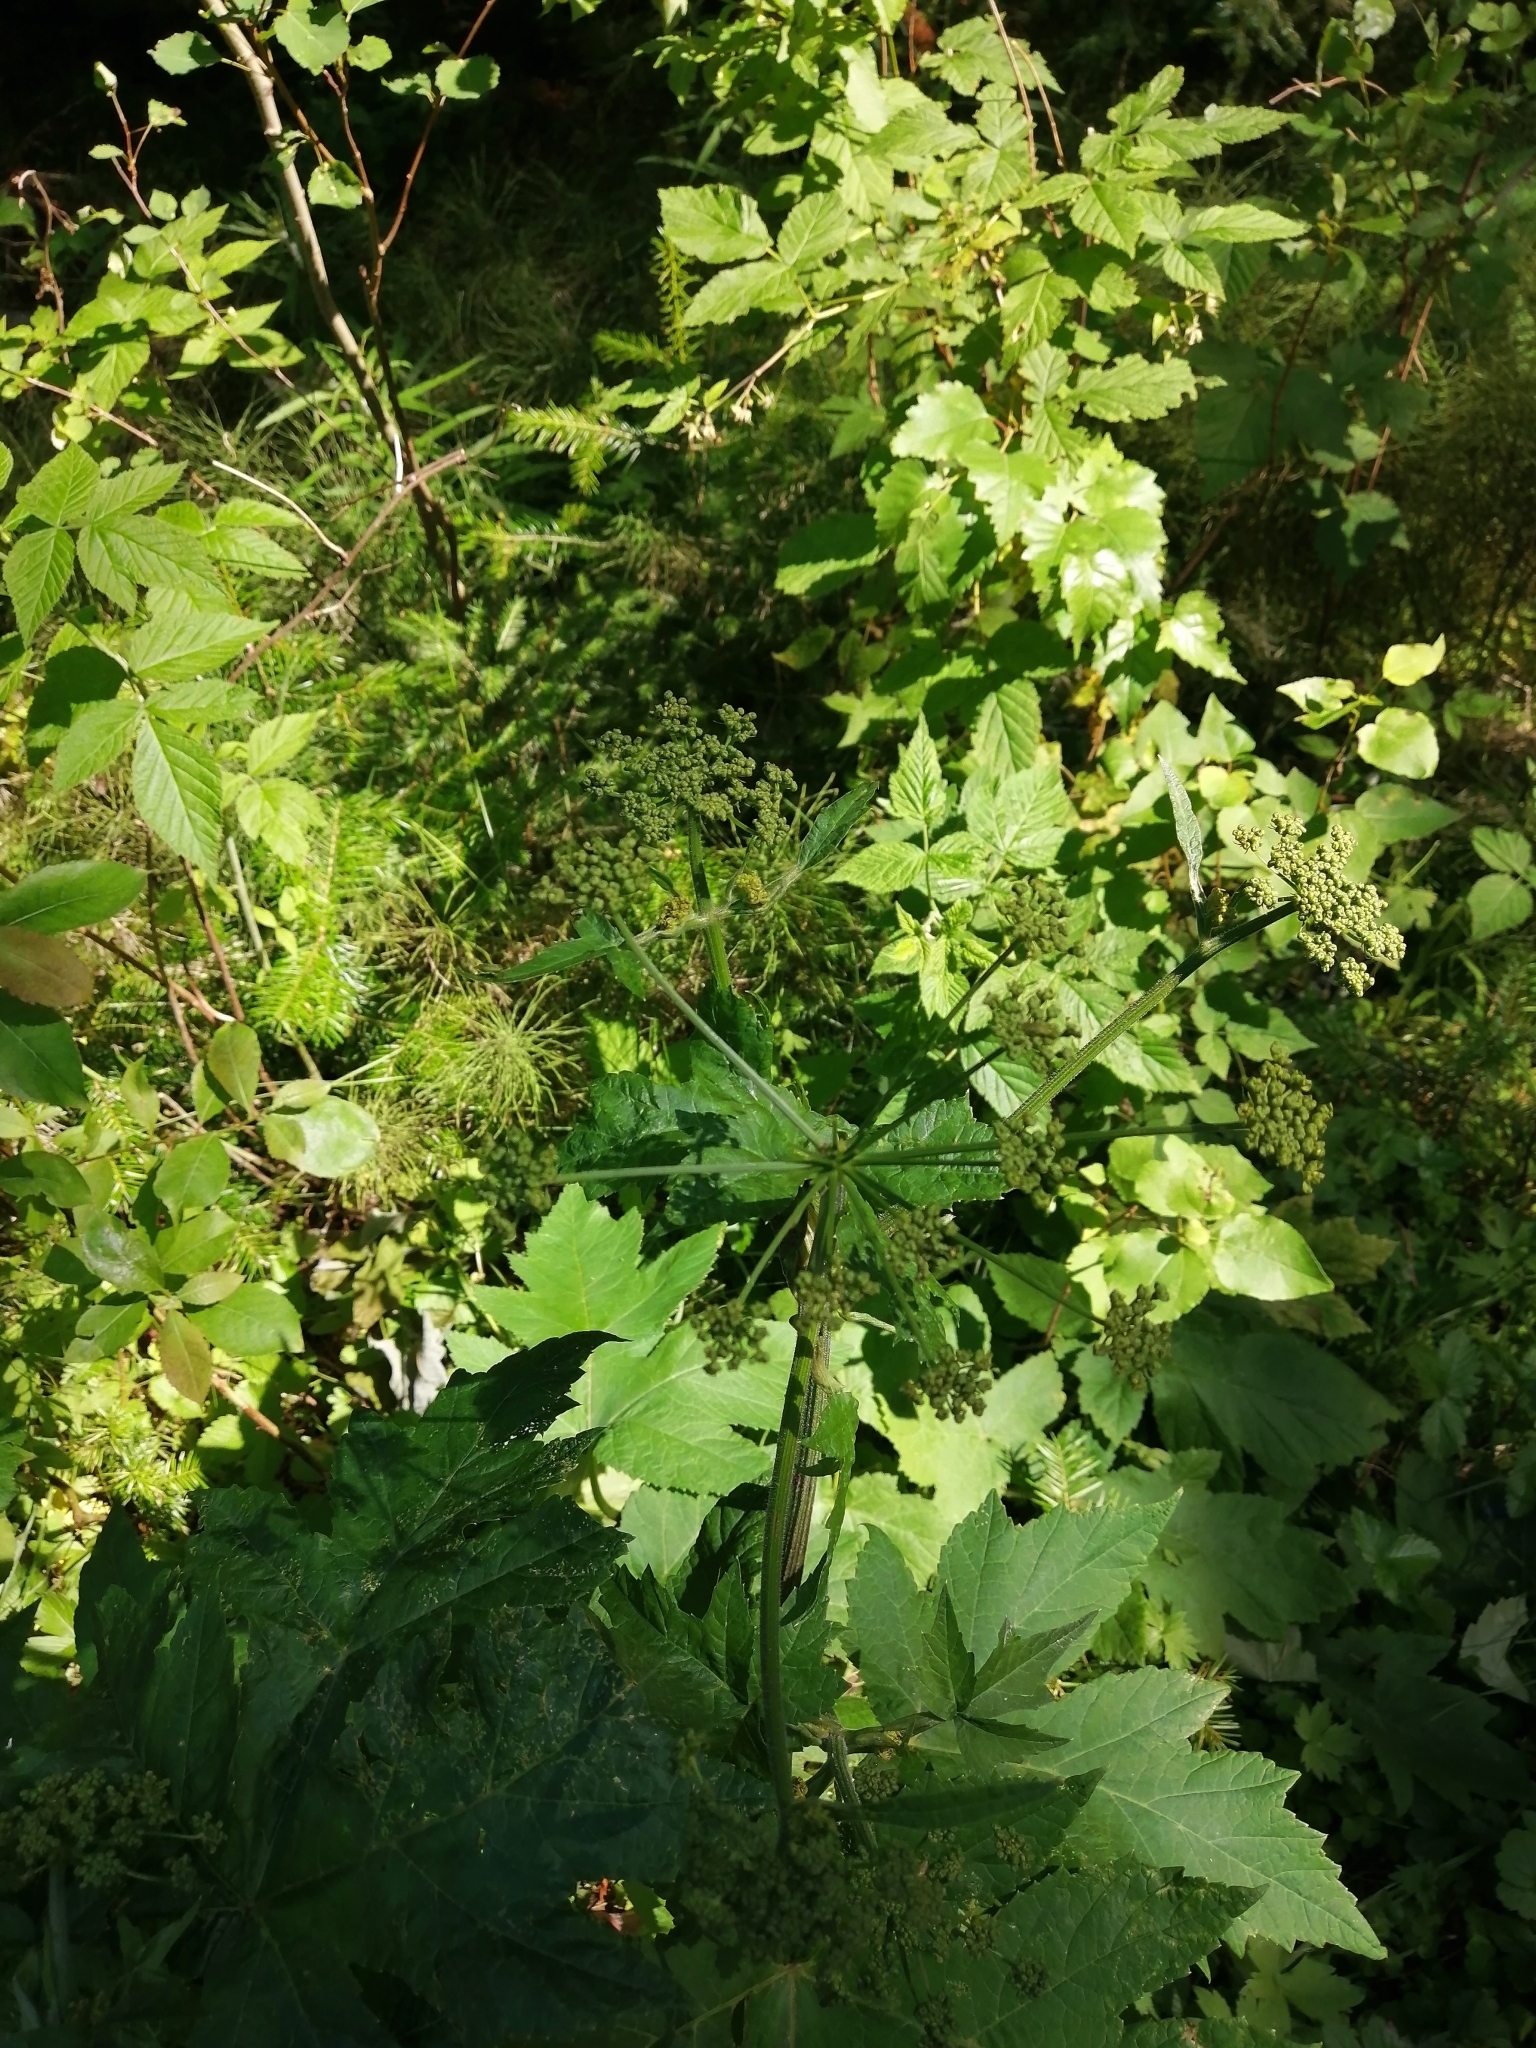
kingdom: Plantae
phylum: Tracheophyta
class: Magnoliopsida
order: Apiales
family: Apiaceae
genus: Heracleum
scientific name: Heracleum dissectum
